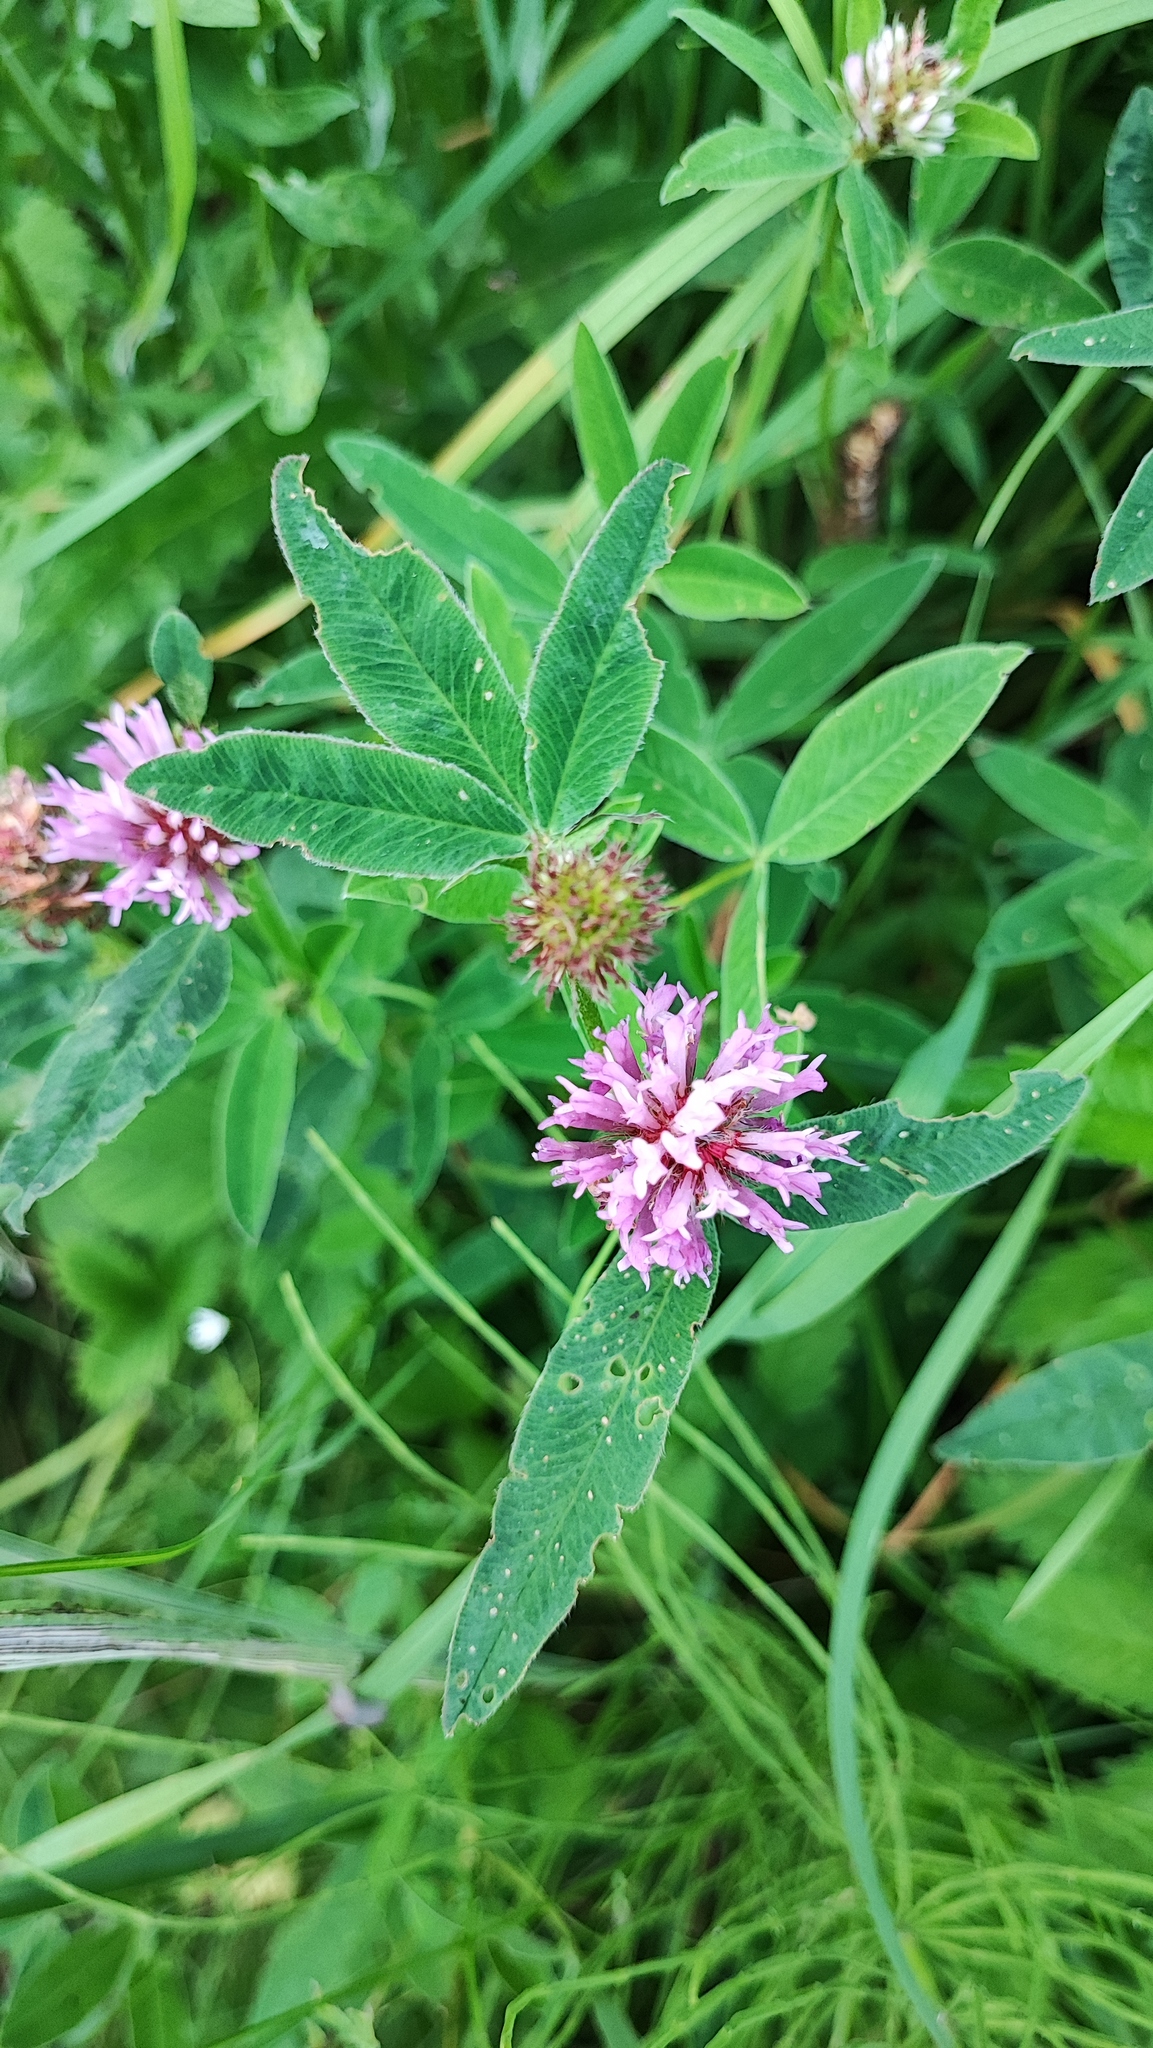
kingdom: Plantae
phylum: Tracheophyta
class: Magnoliopsida
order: Fabales
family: Fabaceae
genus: Trifolium
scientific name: Trifolium medium
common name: Zigzag clover
